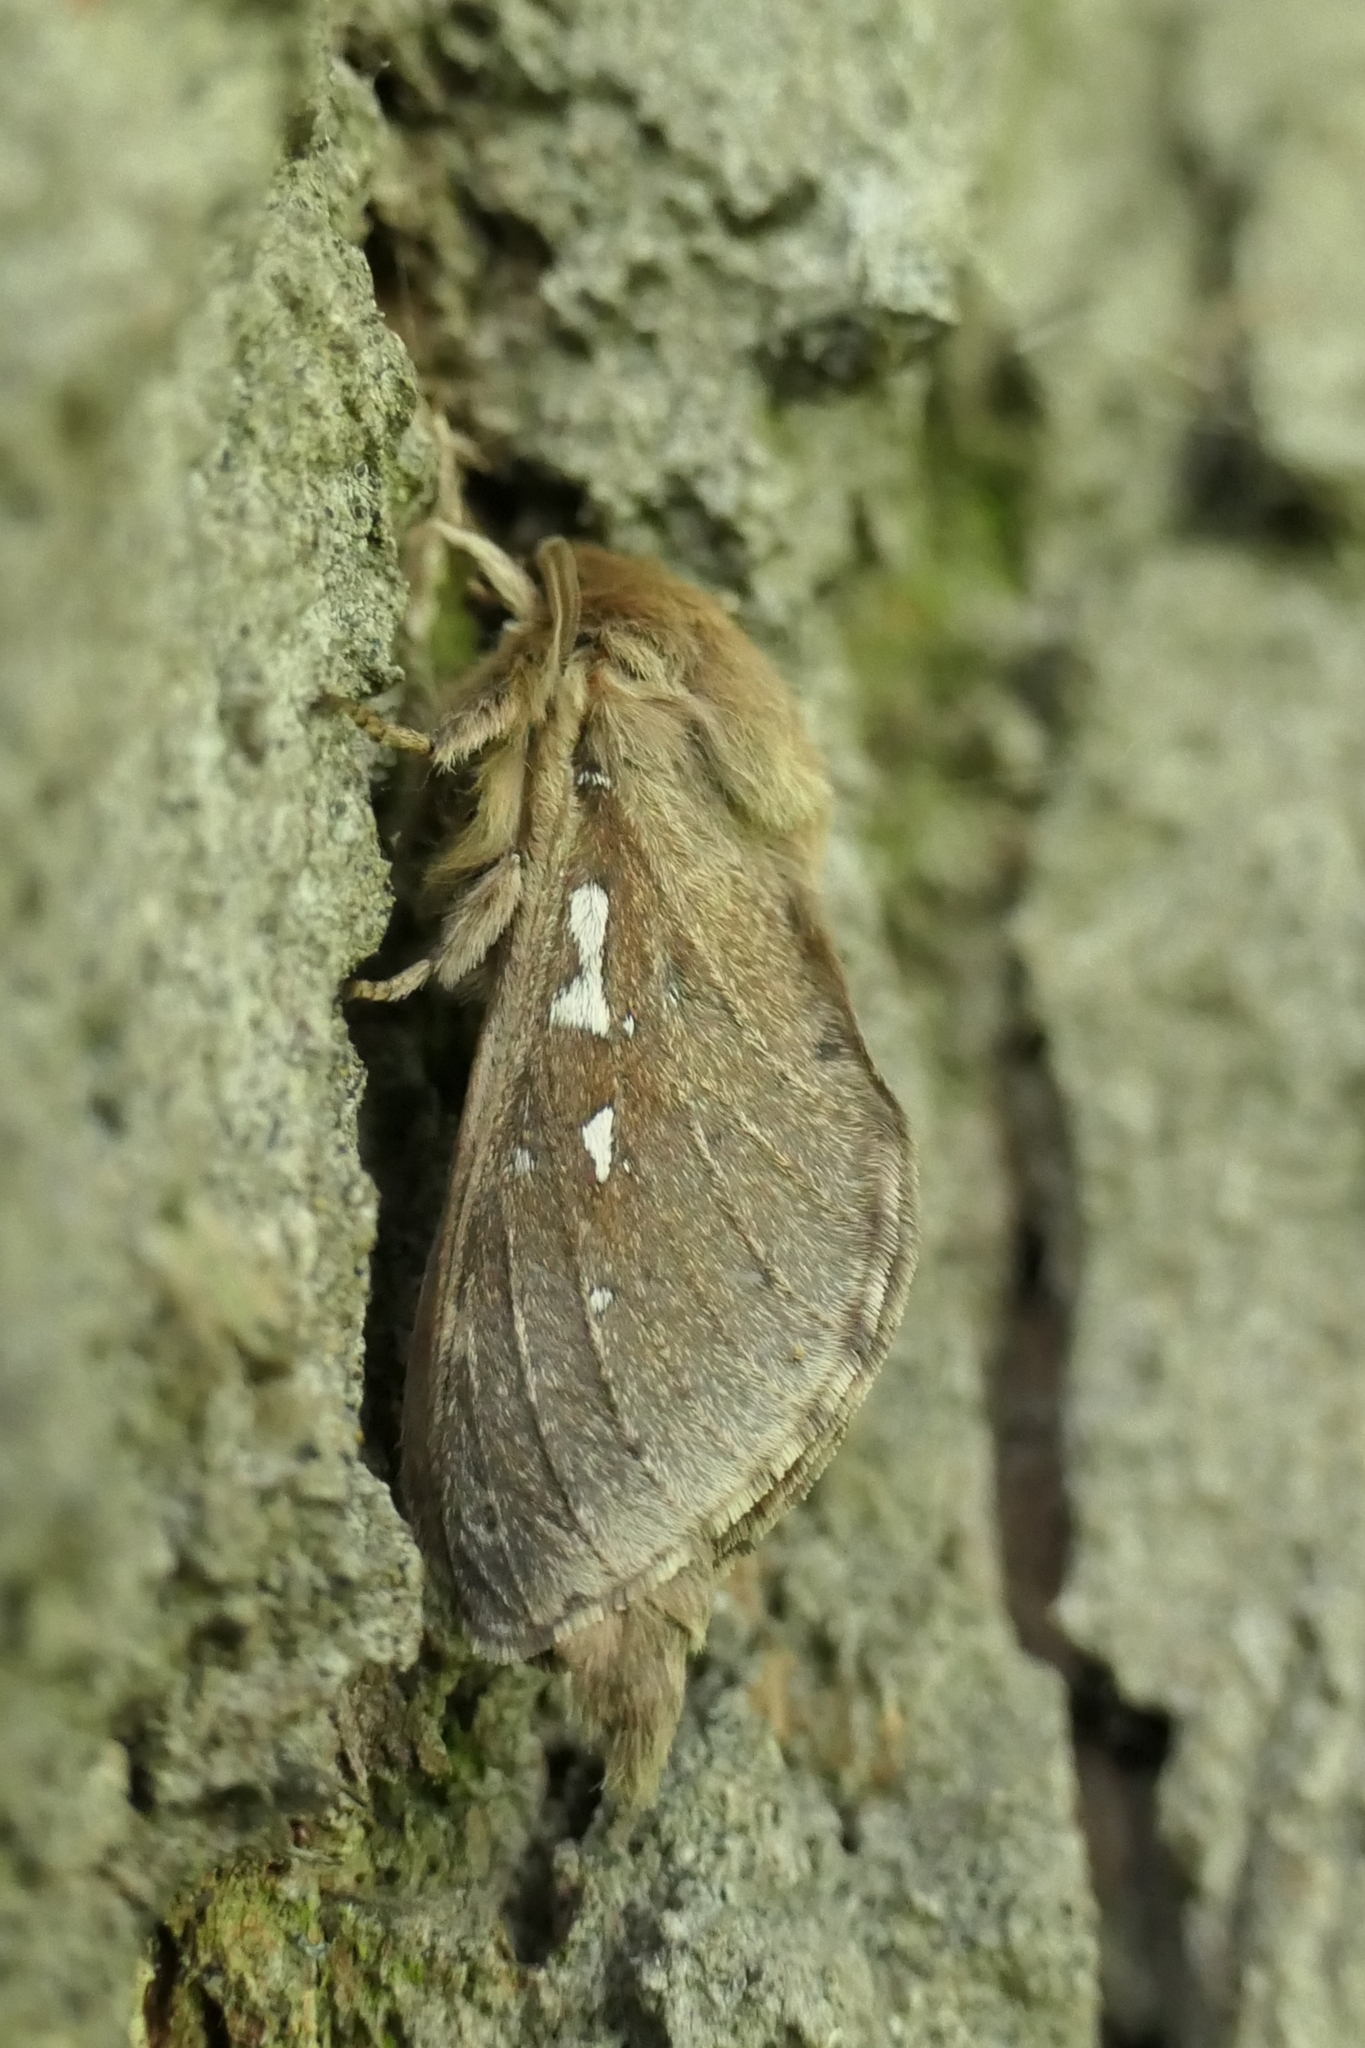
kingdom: Animalia
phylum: Arthropoda
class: Insecta
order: Lepidoptera
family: Hepialidae
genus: Wiseana
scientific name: Wiseana copularis
